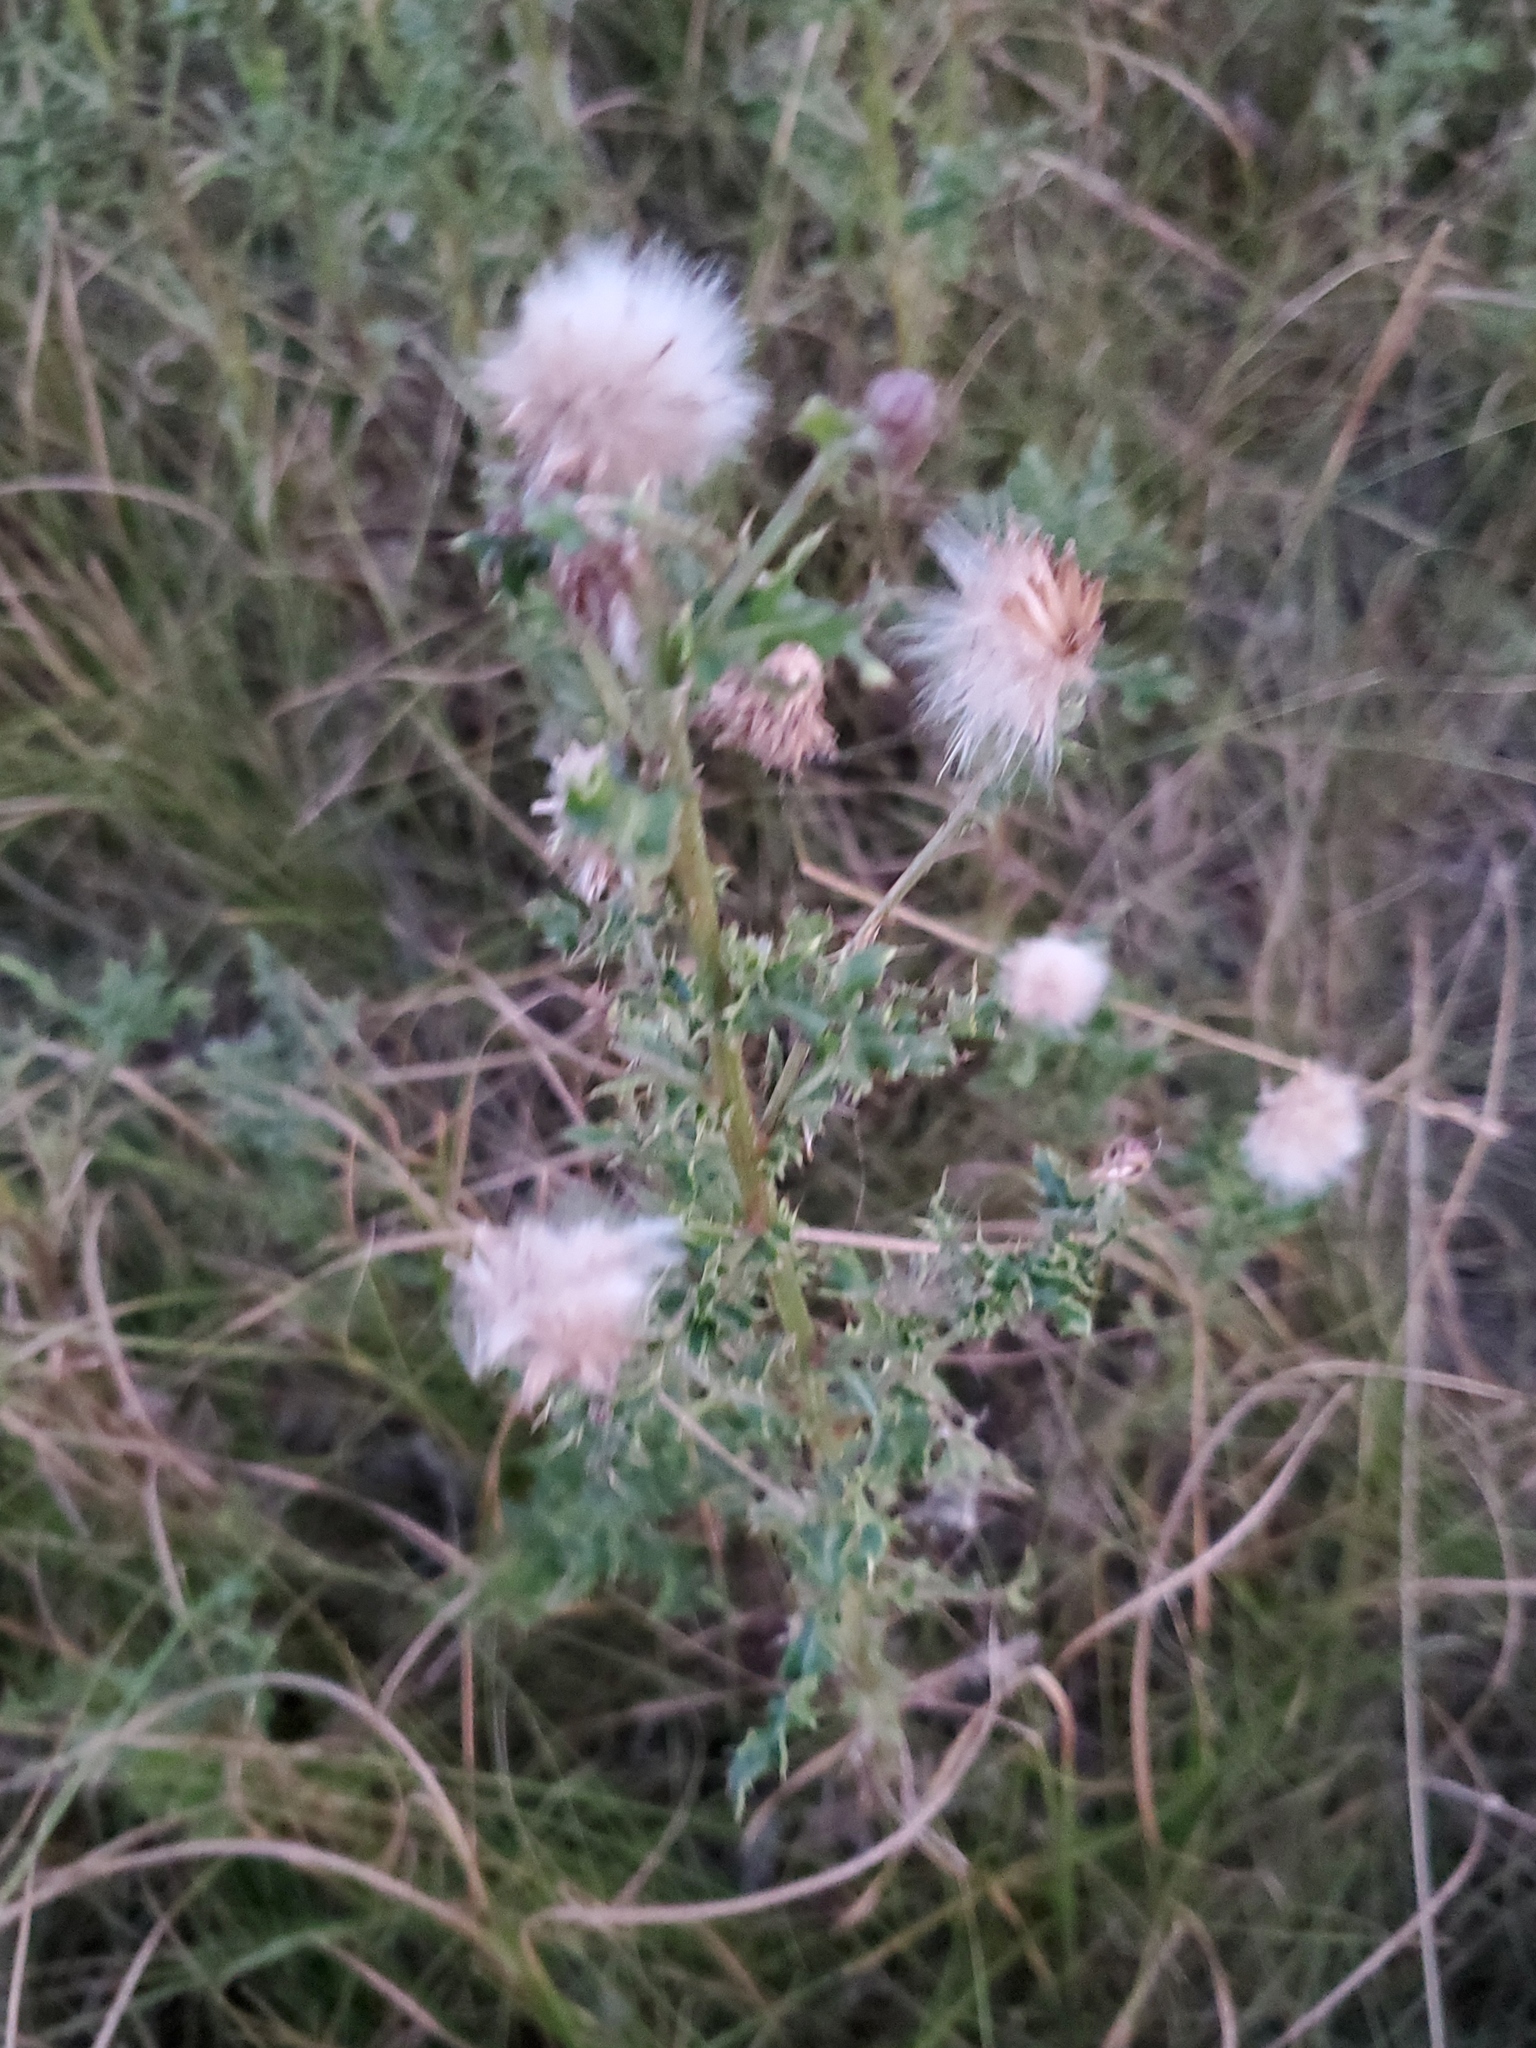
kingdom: Plantae
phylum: Tracheophyta
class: Magnoliopsida
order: Asterales
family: Asteraceae
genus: Cirsium
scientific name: Cirsium arvense
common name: Creeping thistle
